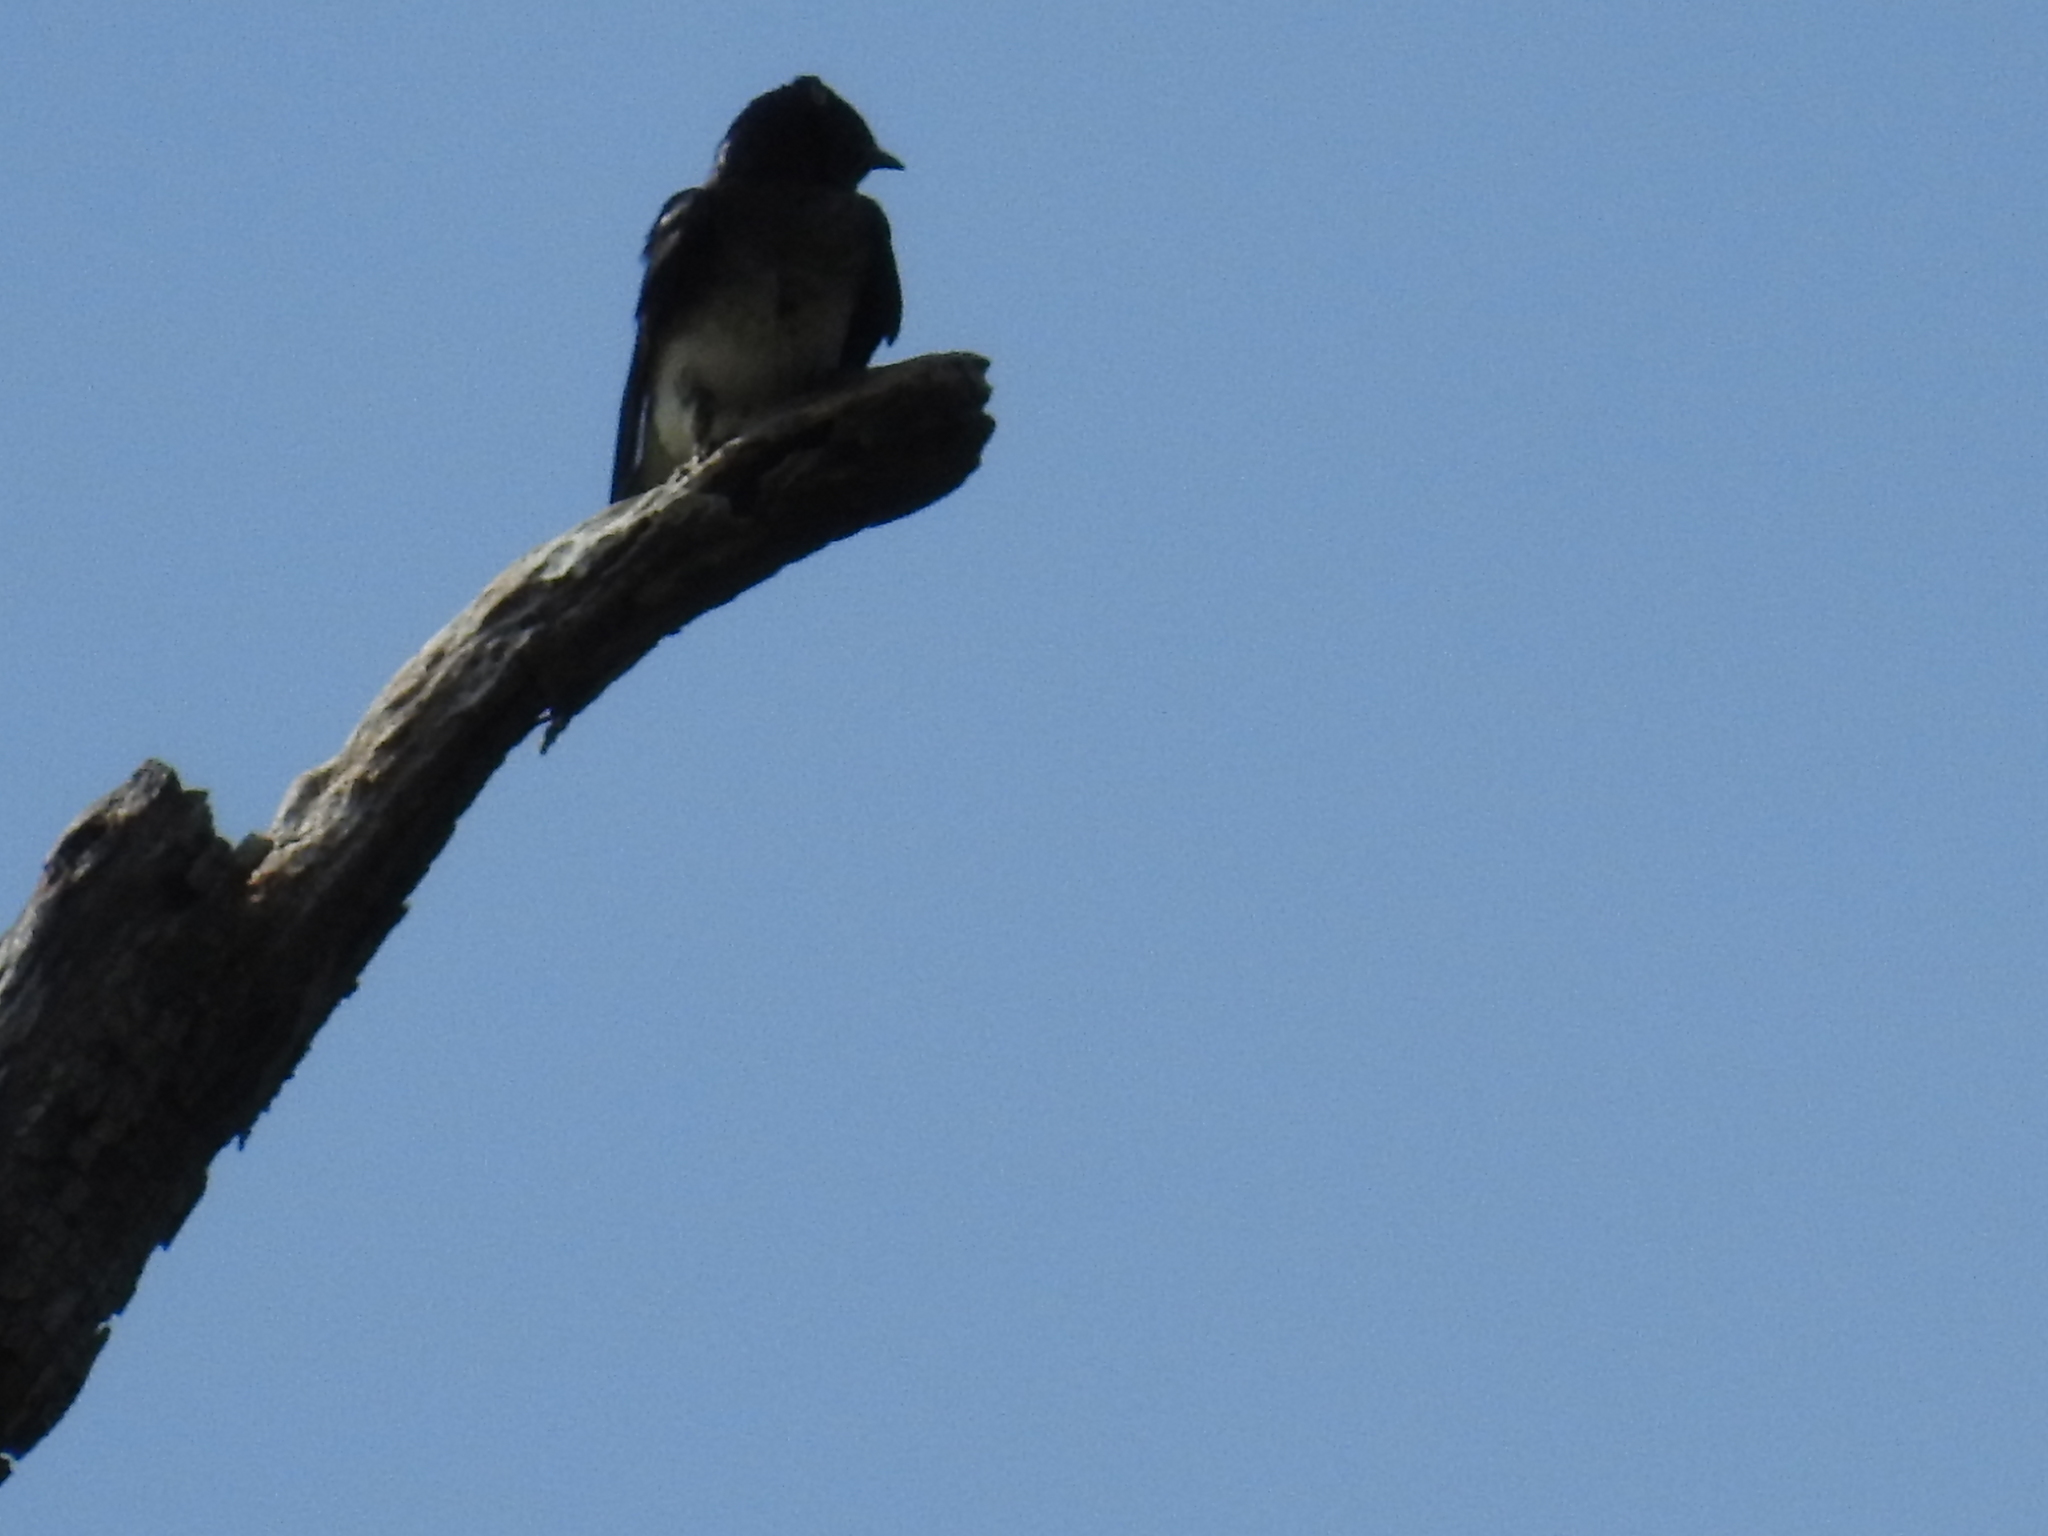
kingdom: Animalia
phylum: Chordata
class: Aves
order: Passeriformes
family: Hirundinidae
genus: Progne
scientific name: Progne chalybea
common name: Grey-breasted martin
